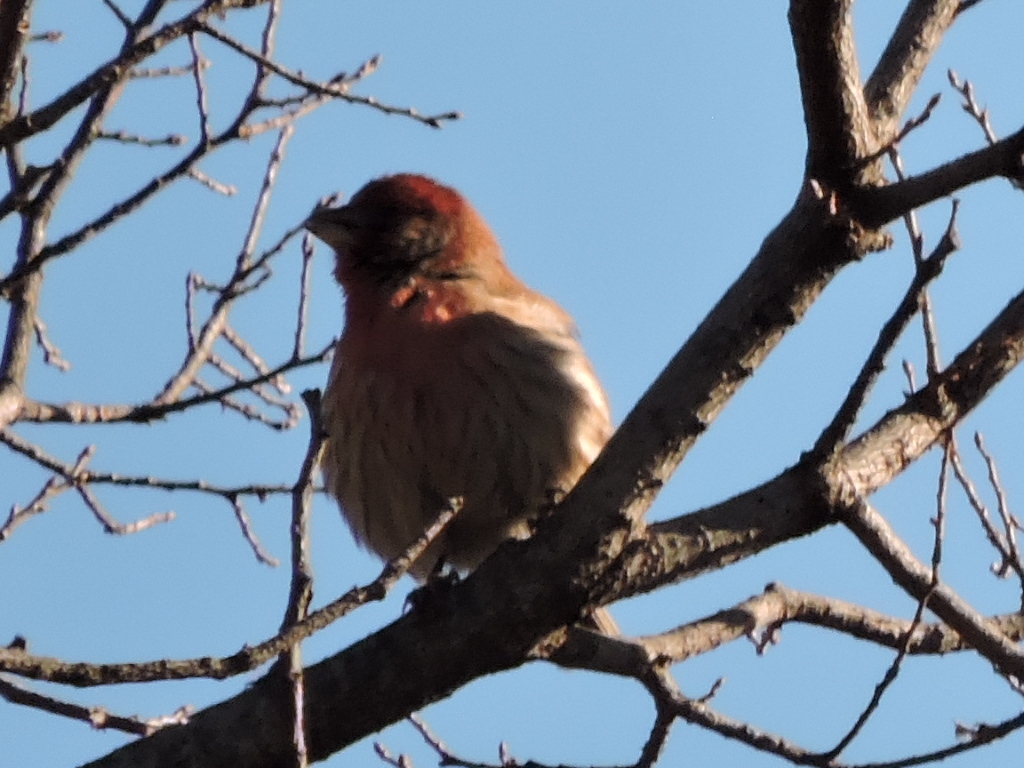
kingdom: Animalia
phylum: Chordata
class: Aves
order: Passeriformes
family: Fringillidae
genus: Haemorhous
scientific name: Haemorhous mexicanus
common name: House finch
